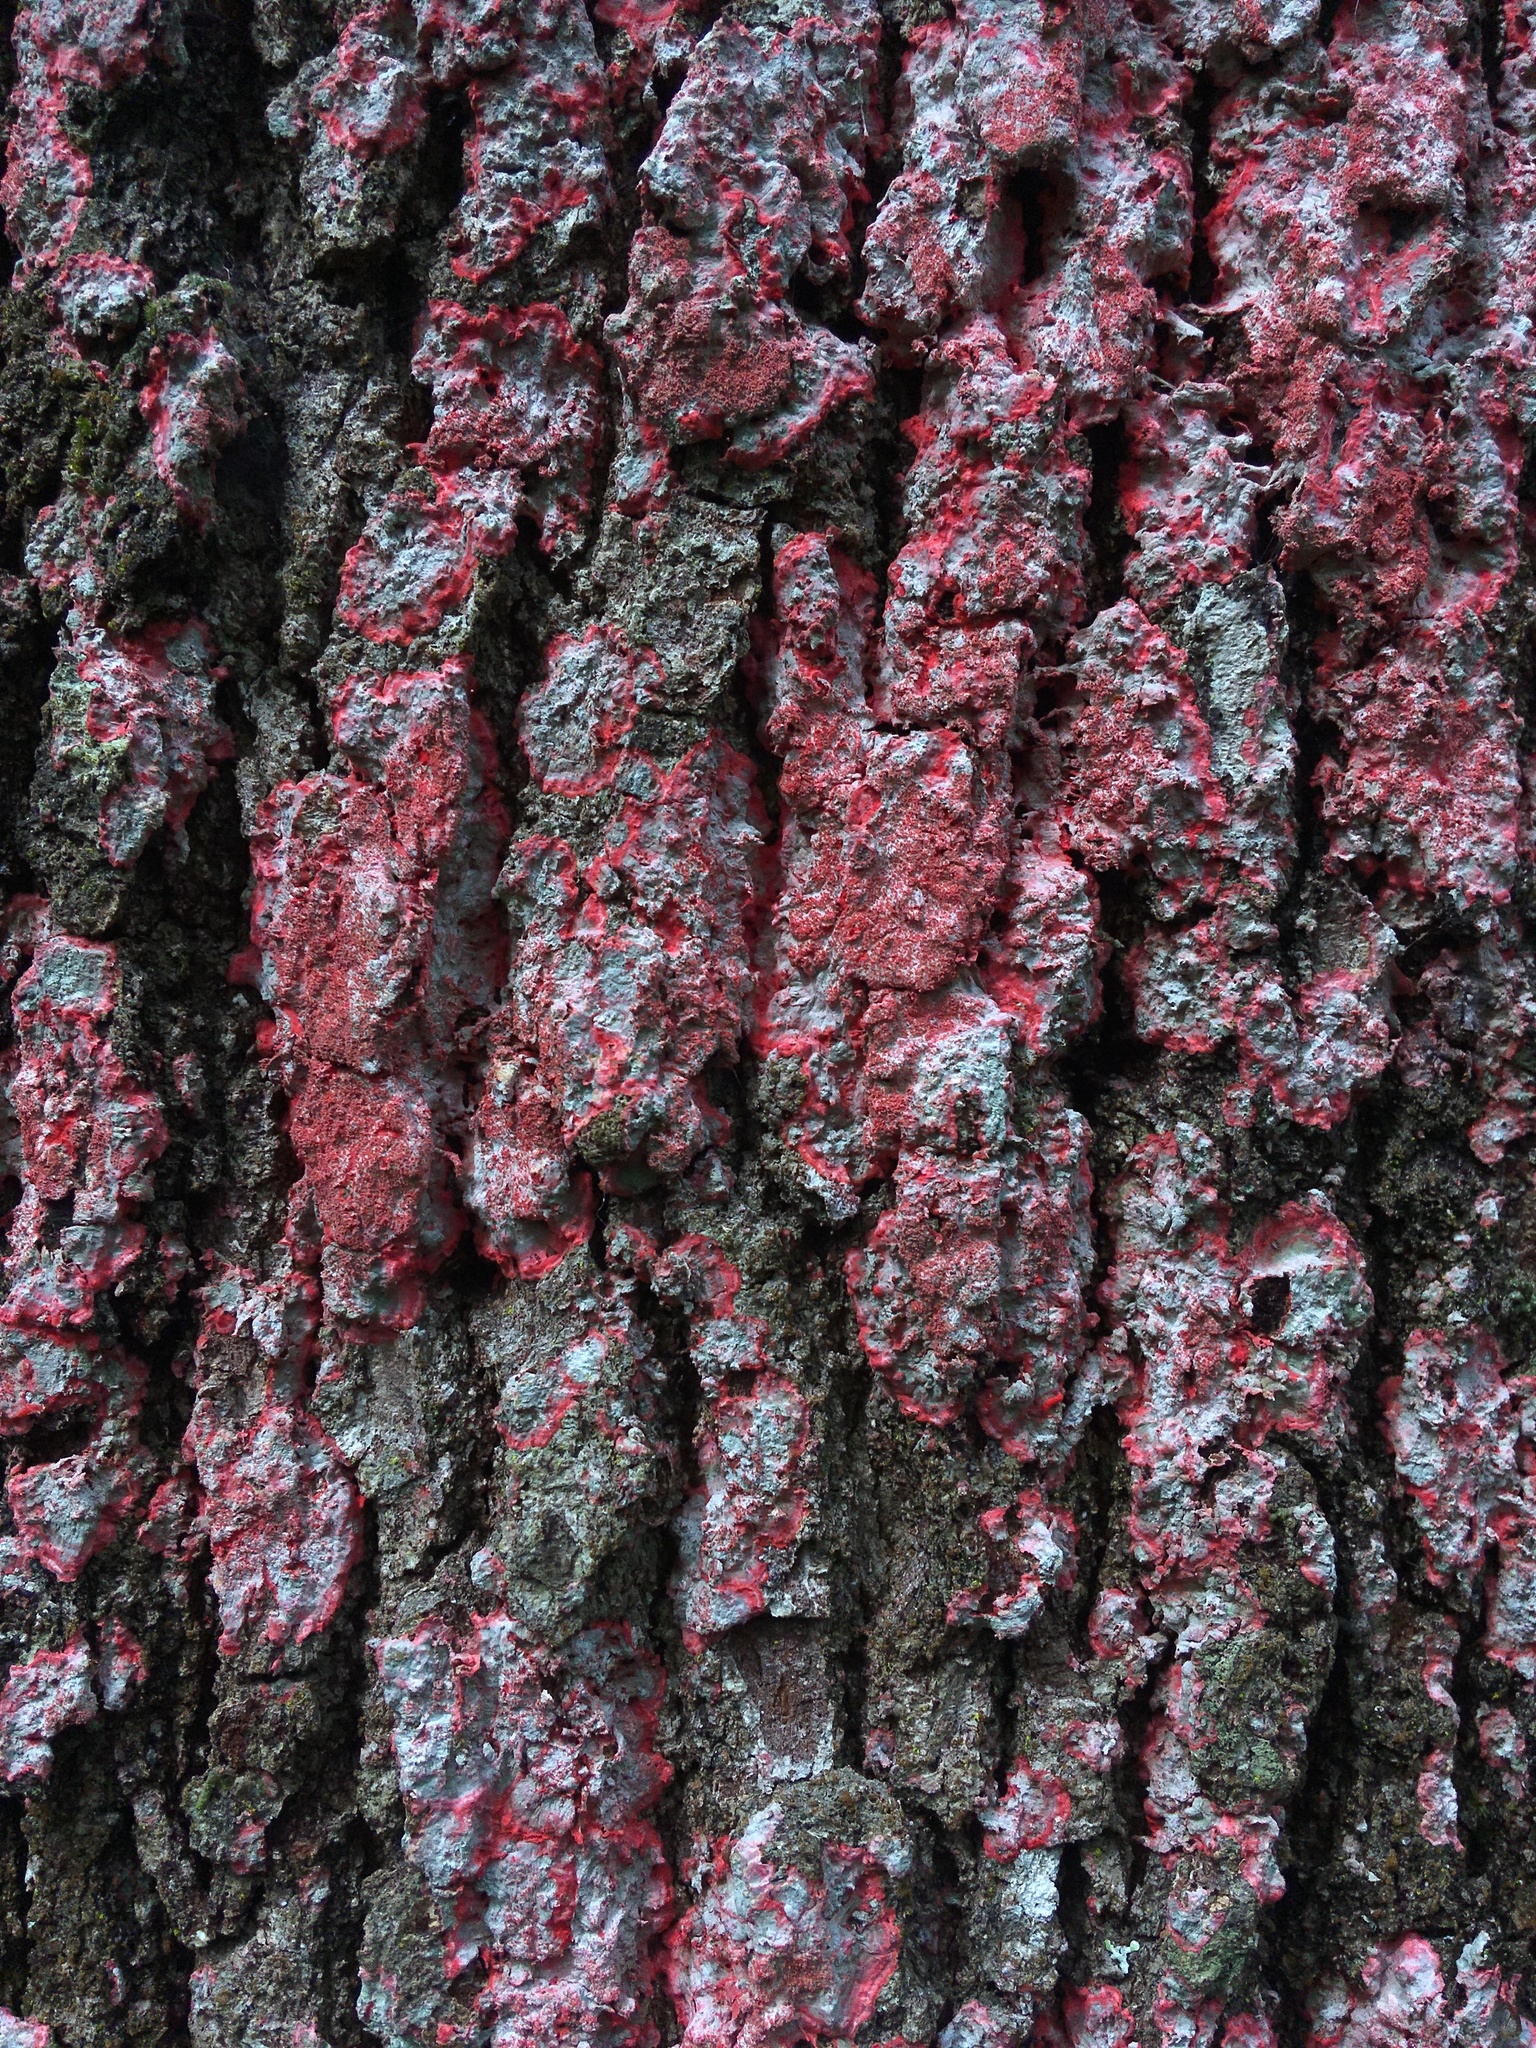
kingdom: Fungi
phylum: Ascomycota
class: Arthoniomycetes
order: Arthoniales
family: Arthoniaceae
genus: Herpothallon
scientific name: Herpothallon rubrocinctum
